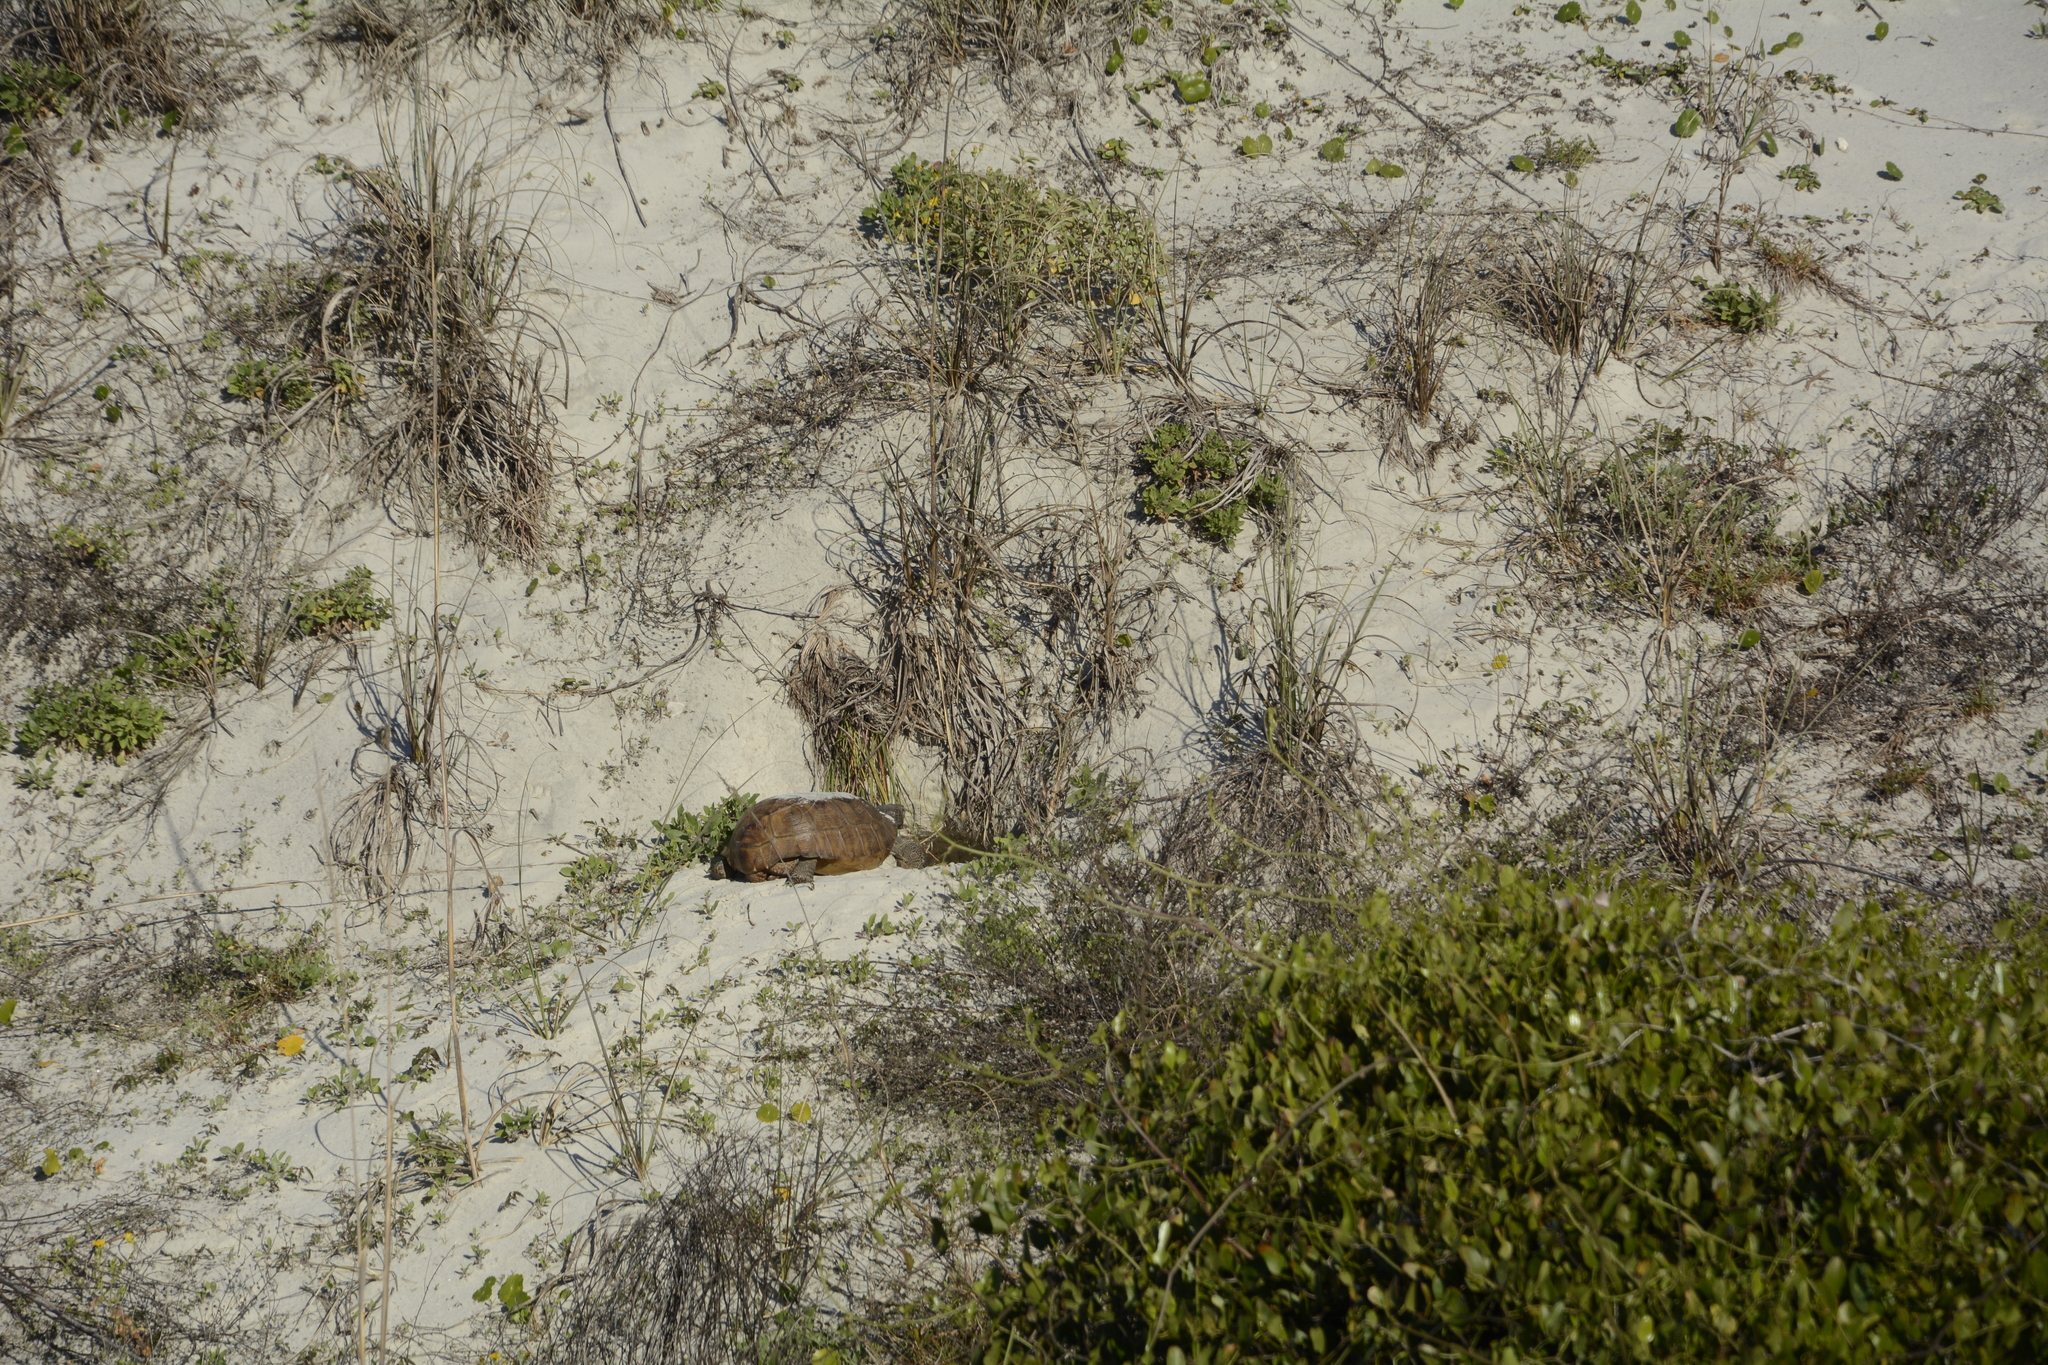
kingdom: Animalia
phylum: Chordata
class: Testudines
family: Testudinidae
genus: Gopherus
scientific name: Gopherus polyphemus
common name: Florida gopher tortoise
